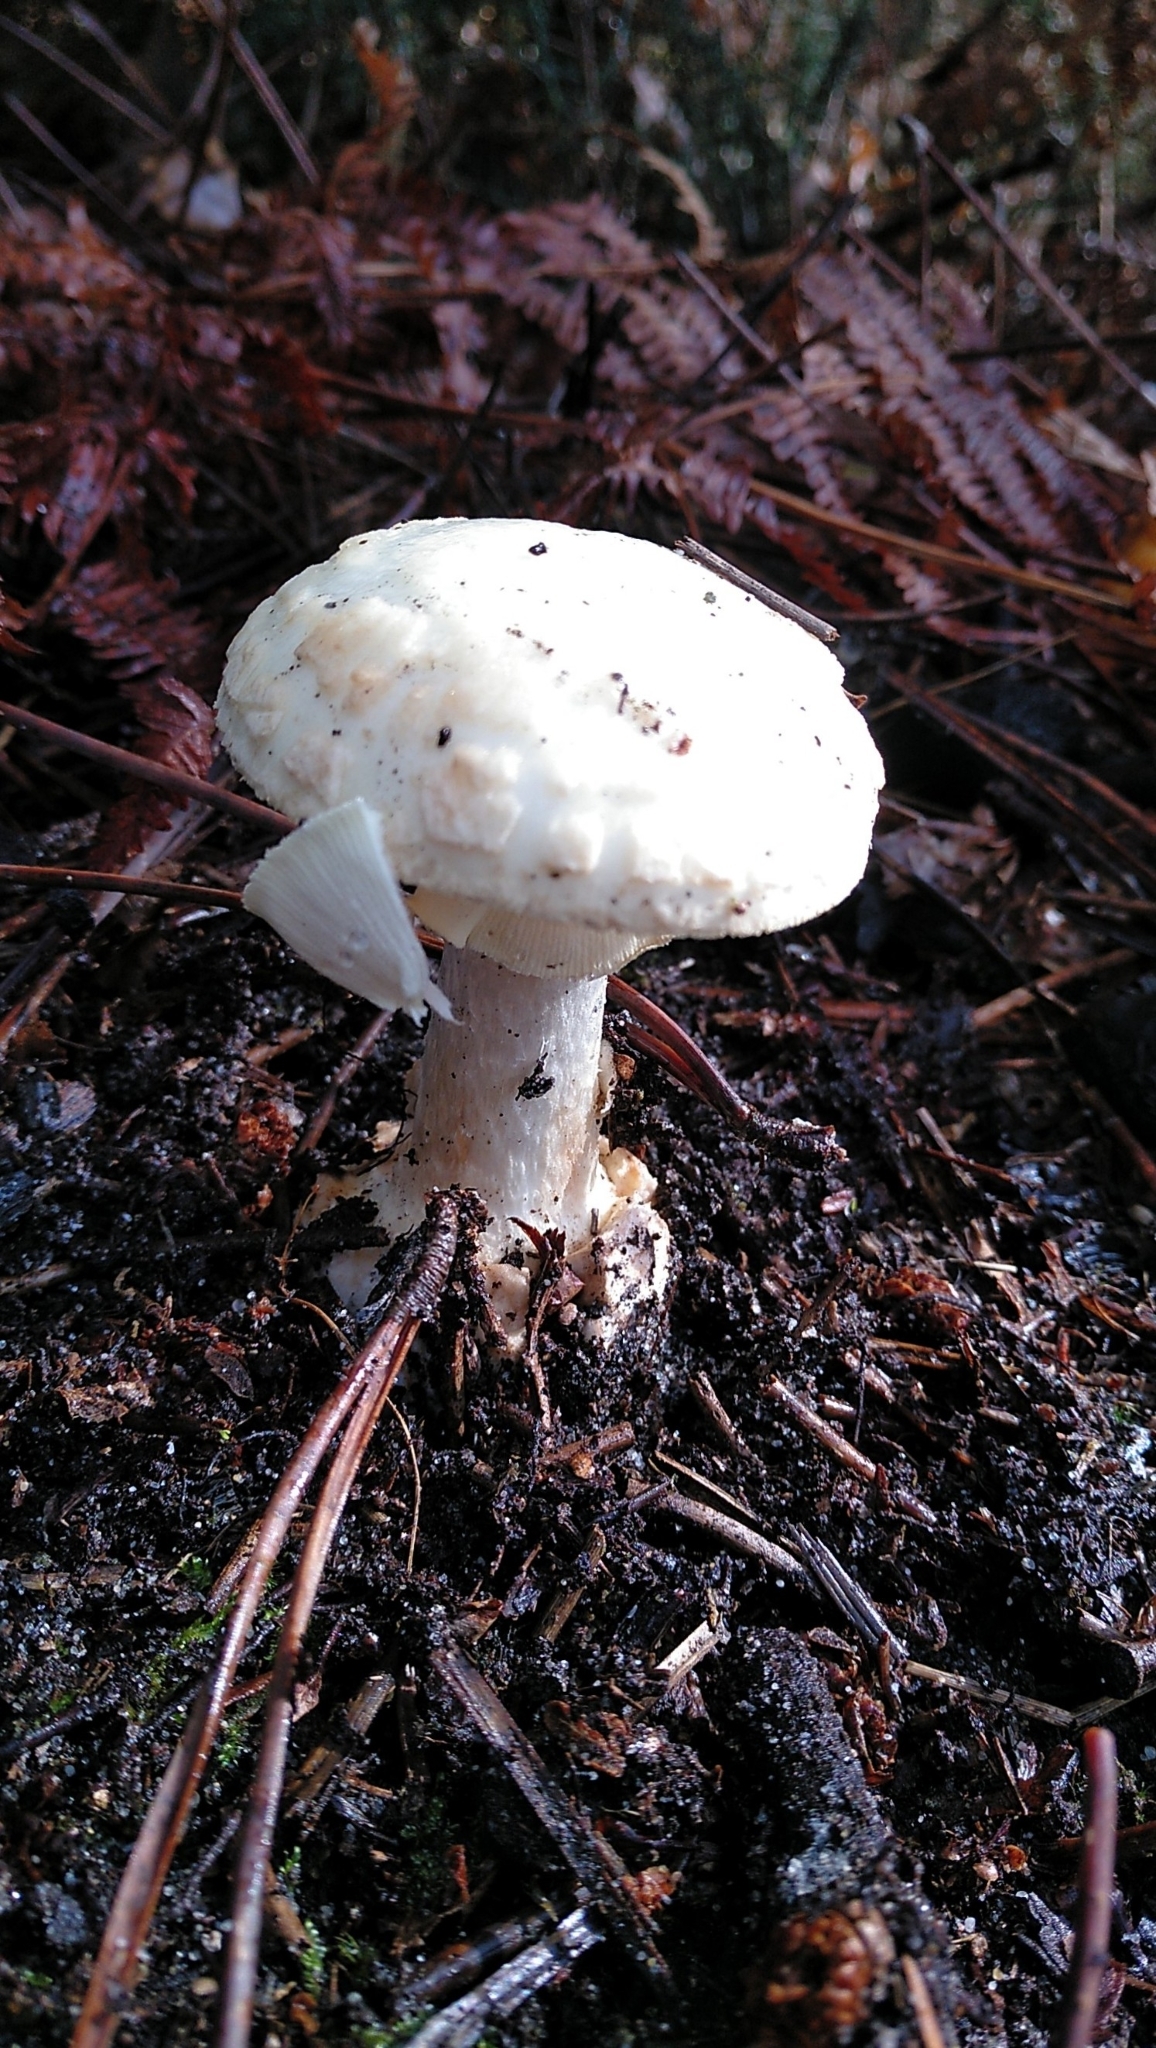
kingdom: Fungi
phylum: Basidiomycota
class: Agaricomycetes
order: Agaricales
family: Amanitaceae
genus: Amanita
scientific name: Amanita citrina
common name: False death-cap
